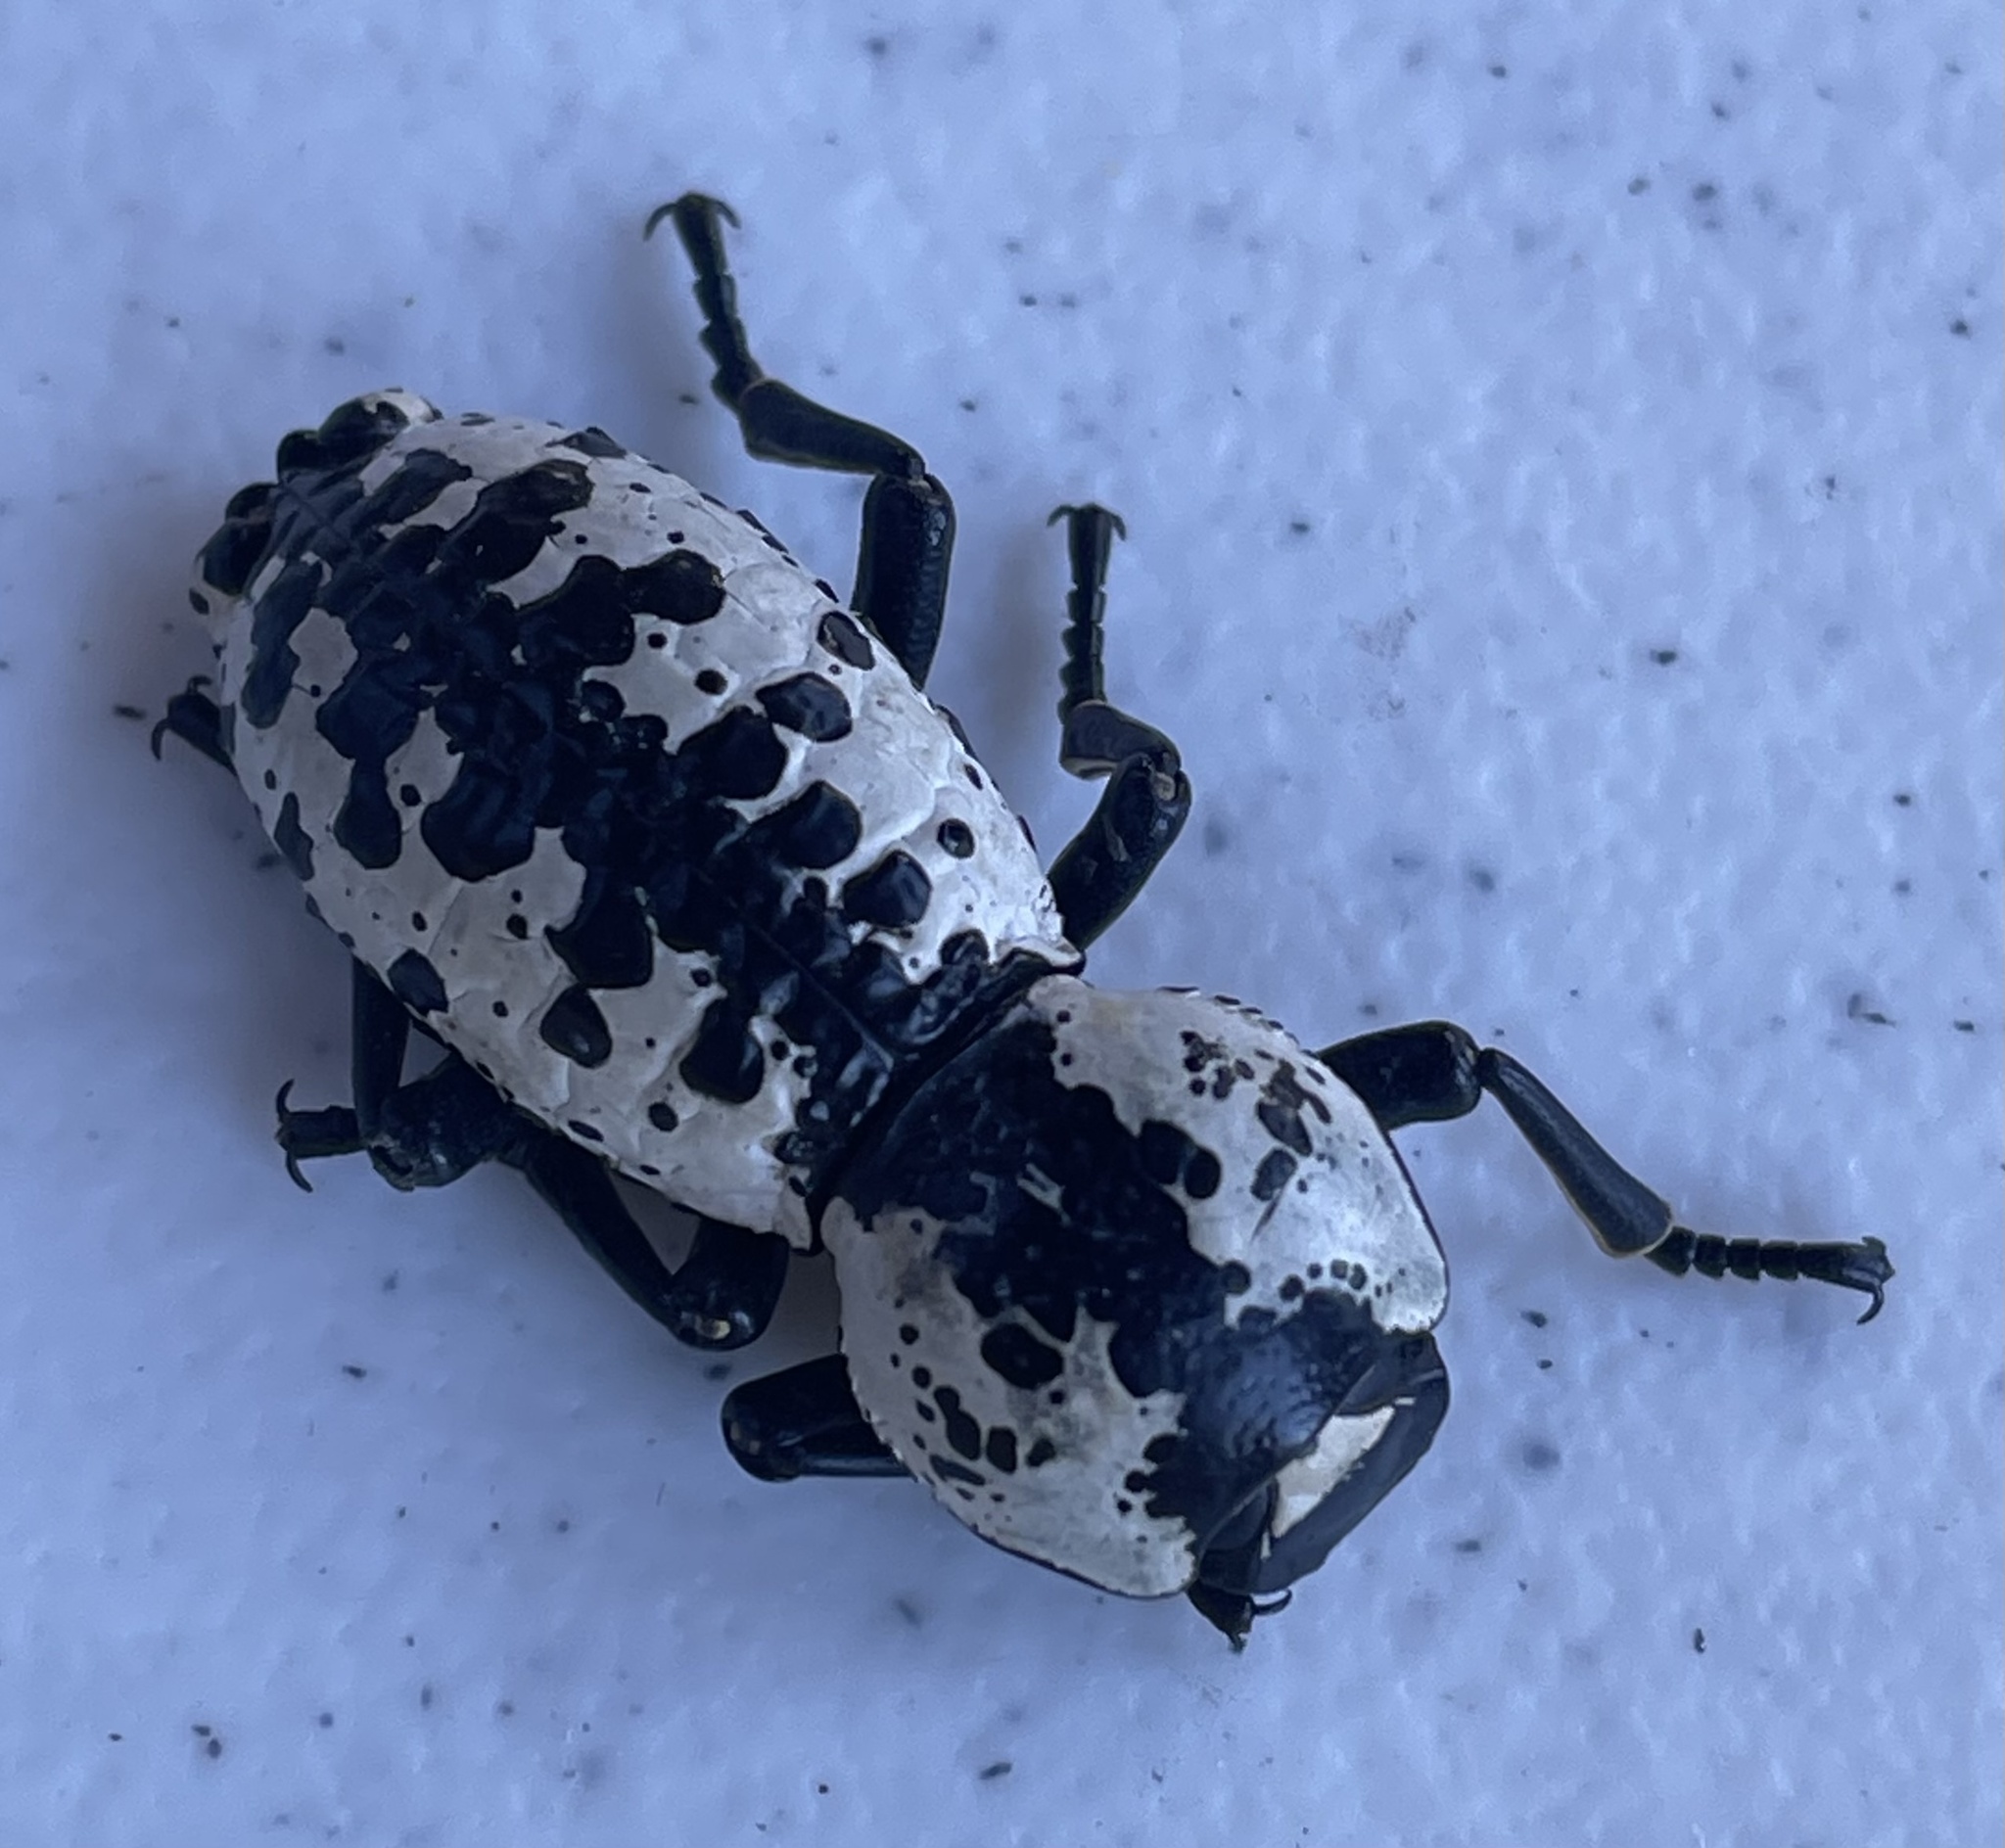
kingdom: Animalia
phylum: Arthropoda
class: Insecta
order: Coleoptera
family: Zopheridae
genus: Zopherus
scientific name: Zopherus nodulosus
